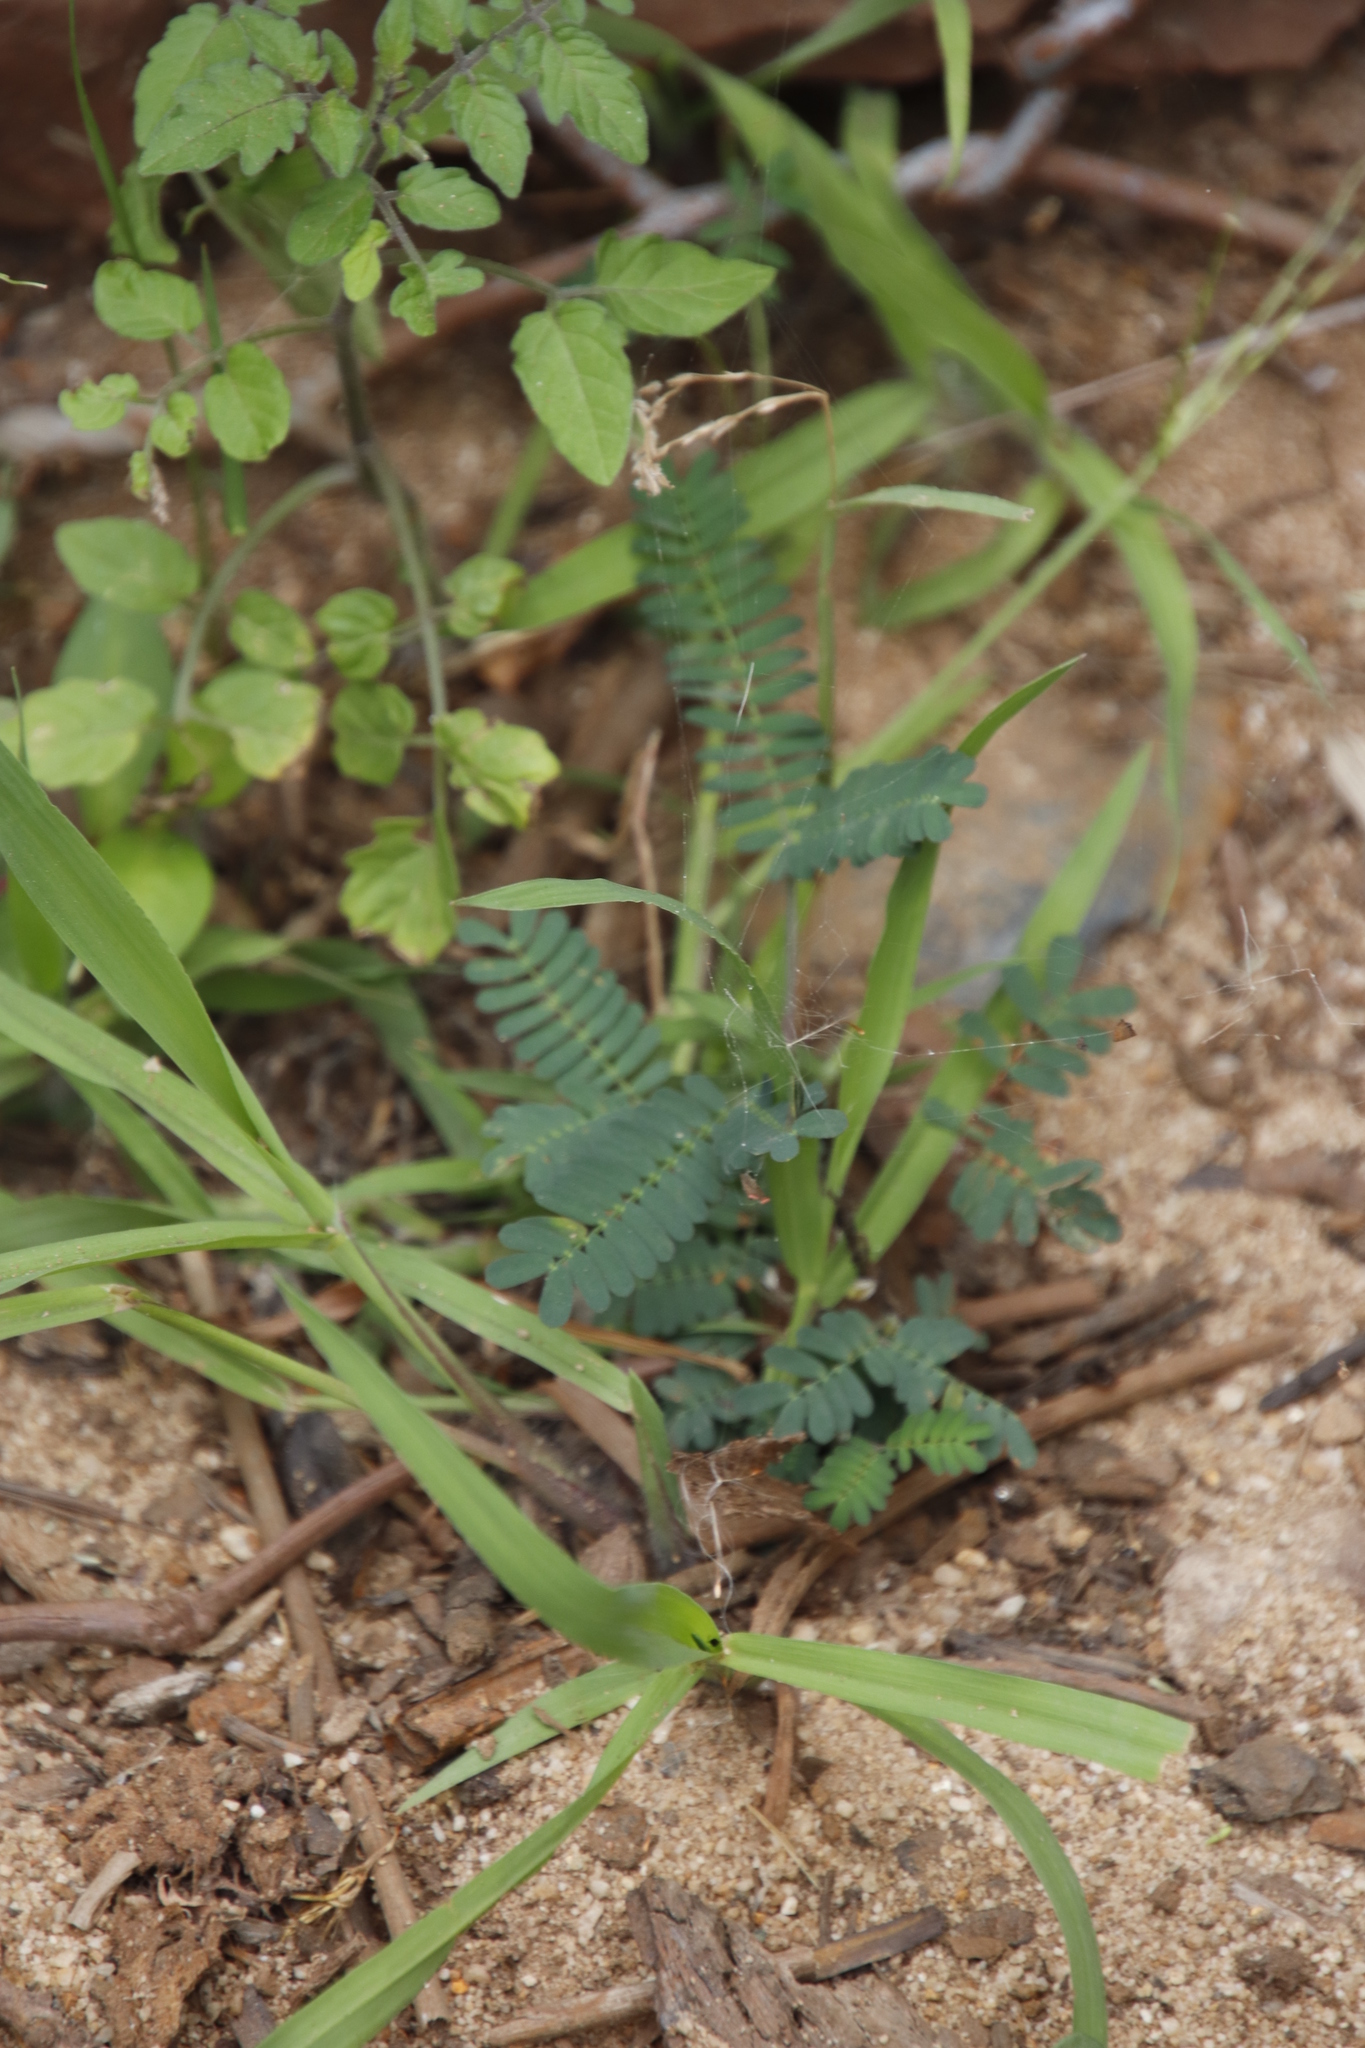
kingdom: Plantae
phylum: Tracheophyta
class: Magnoliopsida
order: Fabales
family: Fabaceae
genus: Acacia
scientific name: Acacia melanoxylon
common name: Blackwood
